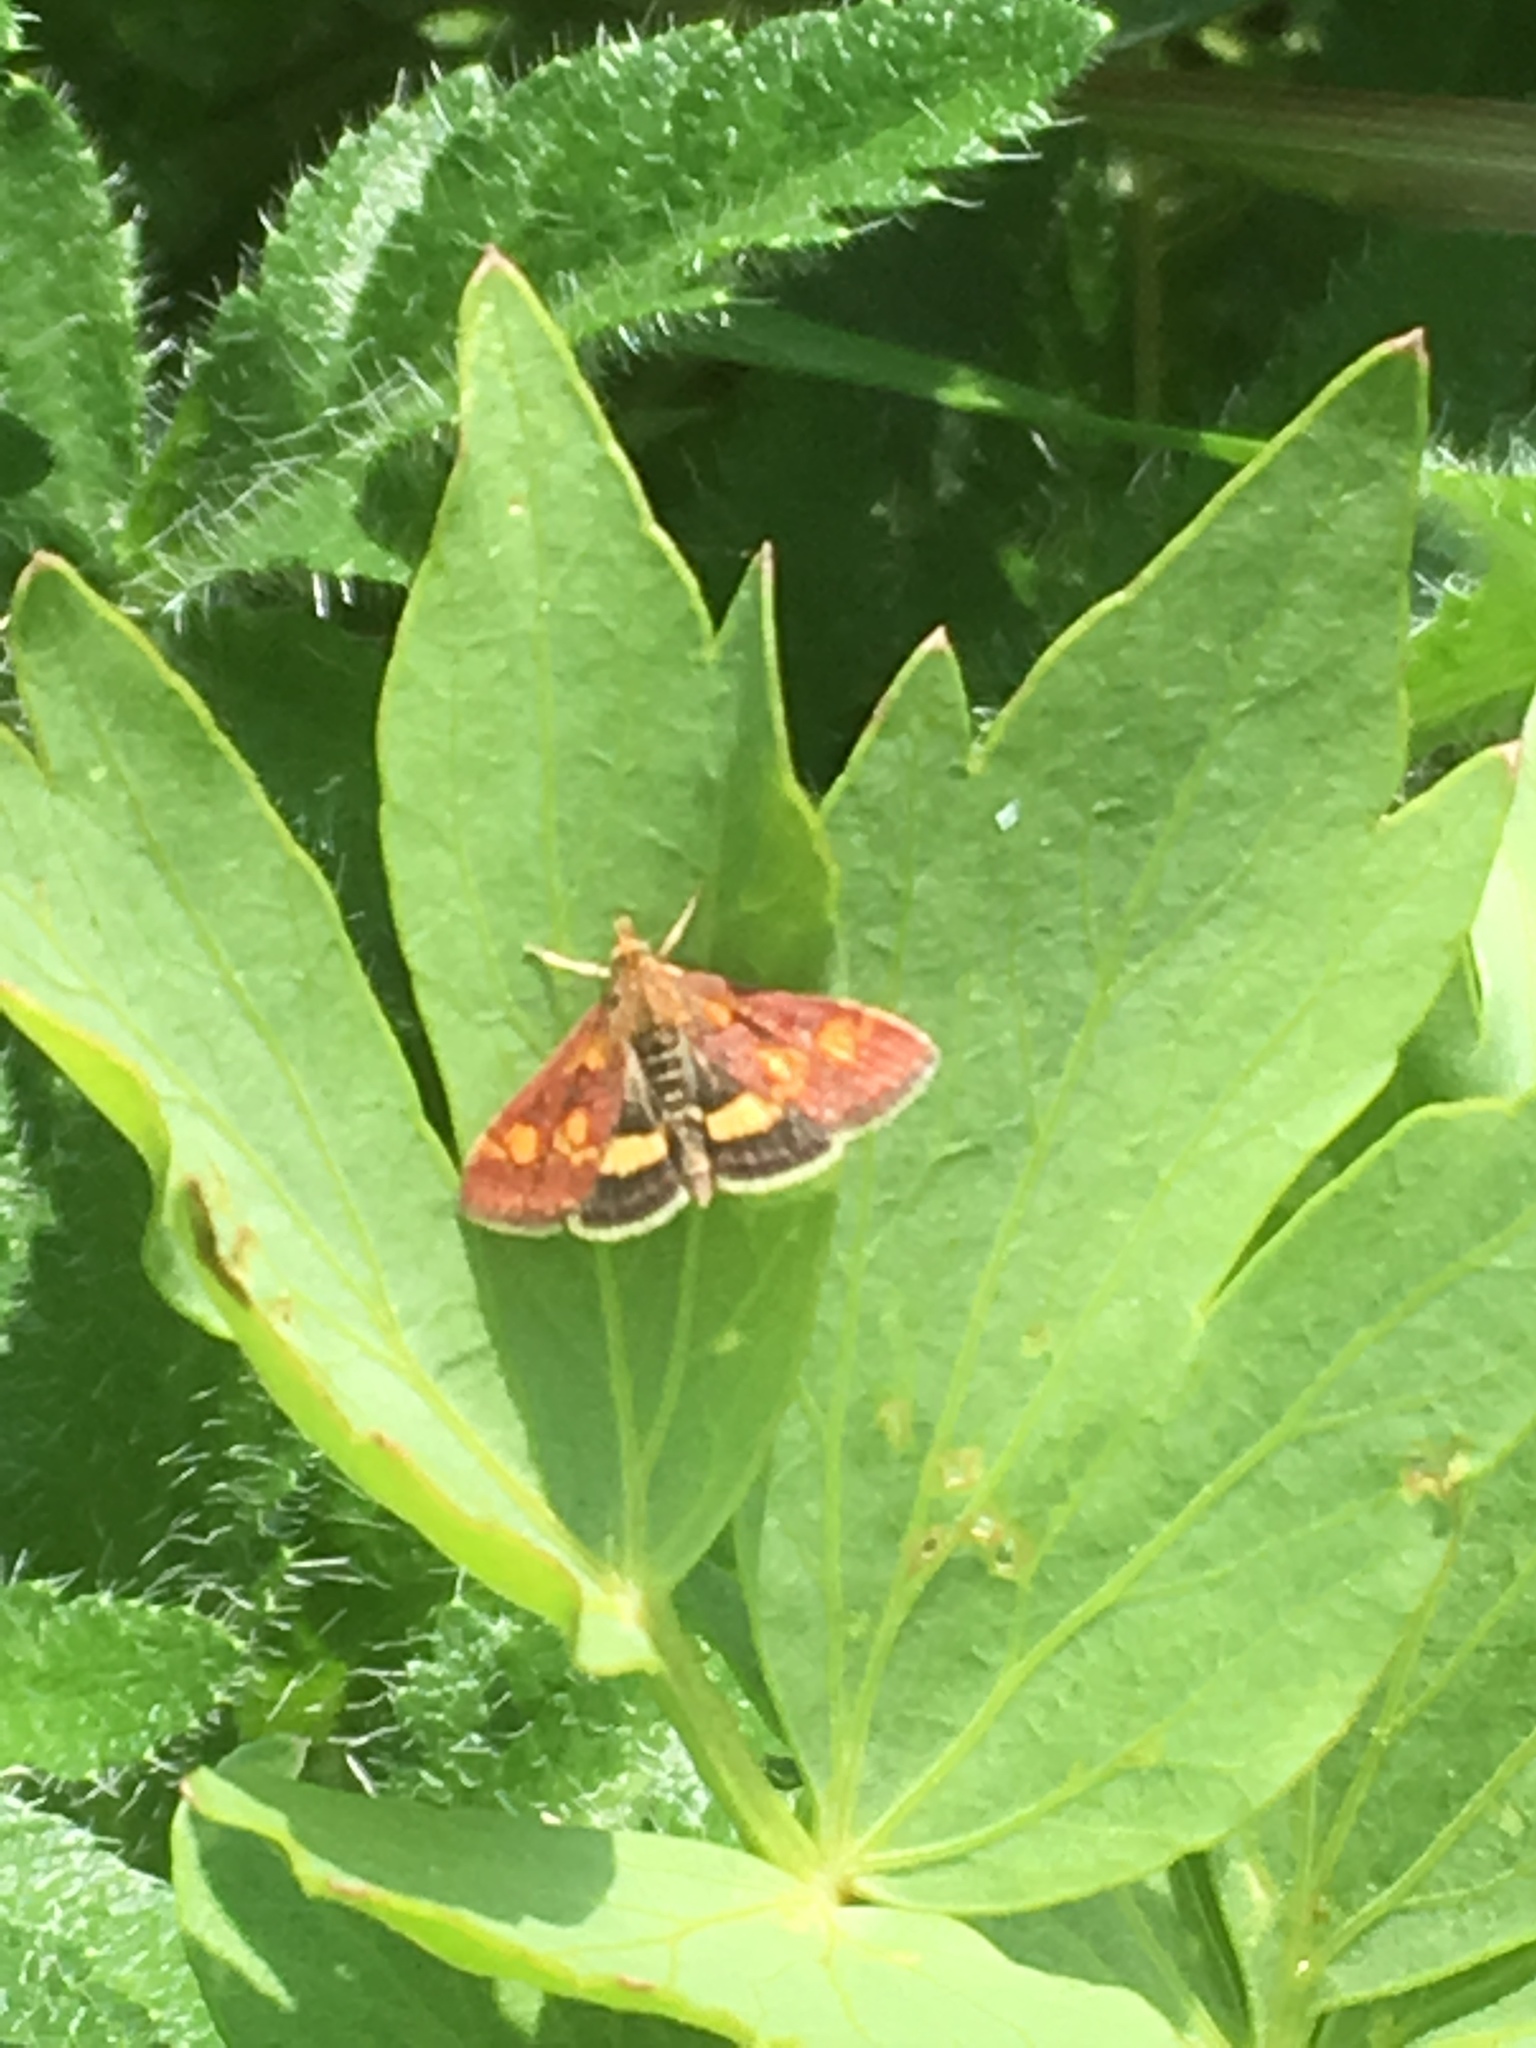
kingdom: Animalia
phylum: Arthropoda
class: Insecta
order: Lepidoptera
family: Crambidae
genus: Pyrausta
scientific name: Pyrausta aurata
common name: Small purple & gold
